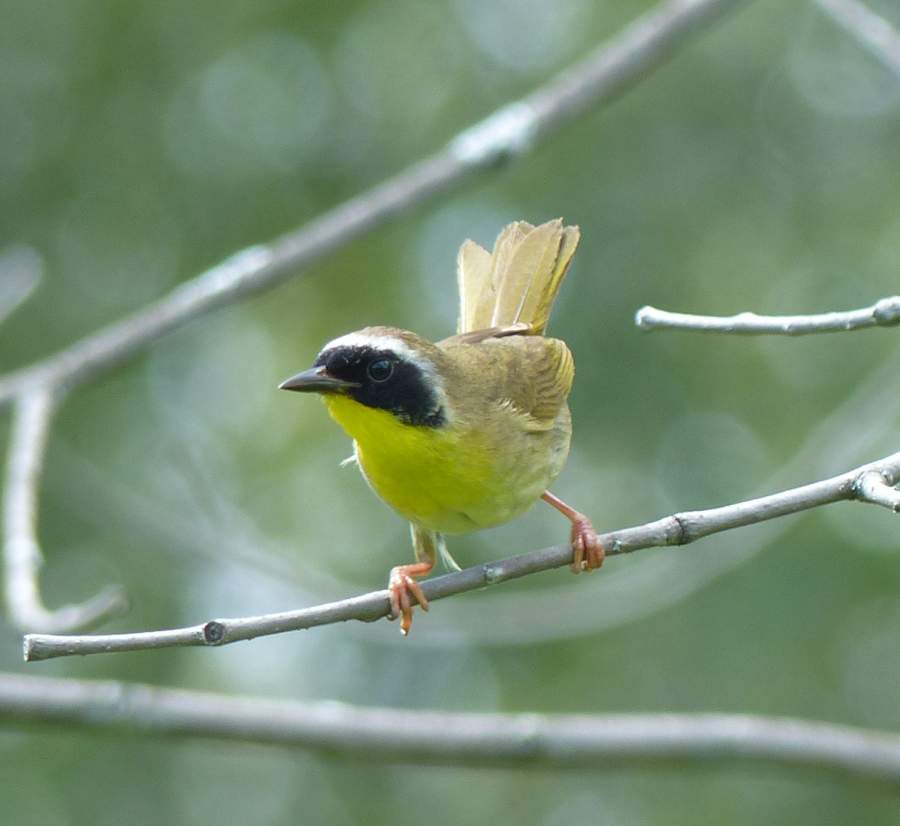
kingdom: Animalia
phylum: Chordata
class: Aves
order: Passeriformes
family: Parulidae
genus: Geothlypis
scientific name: Geothlypis trichas
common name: Common yellowthroat
